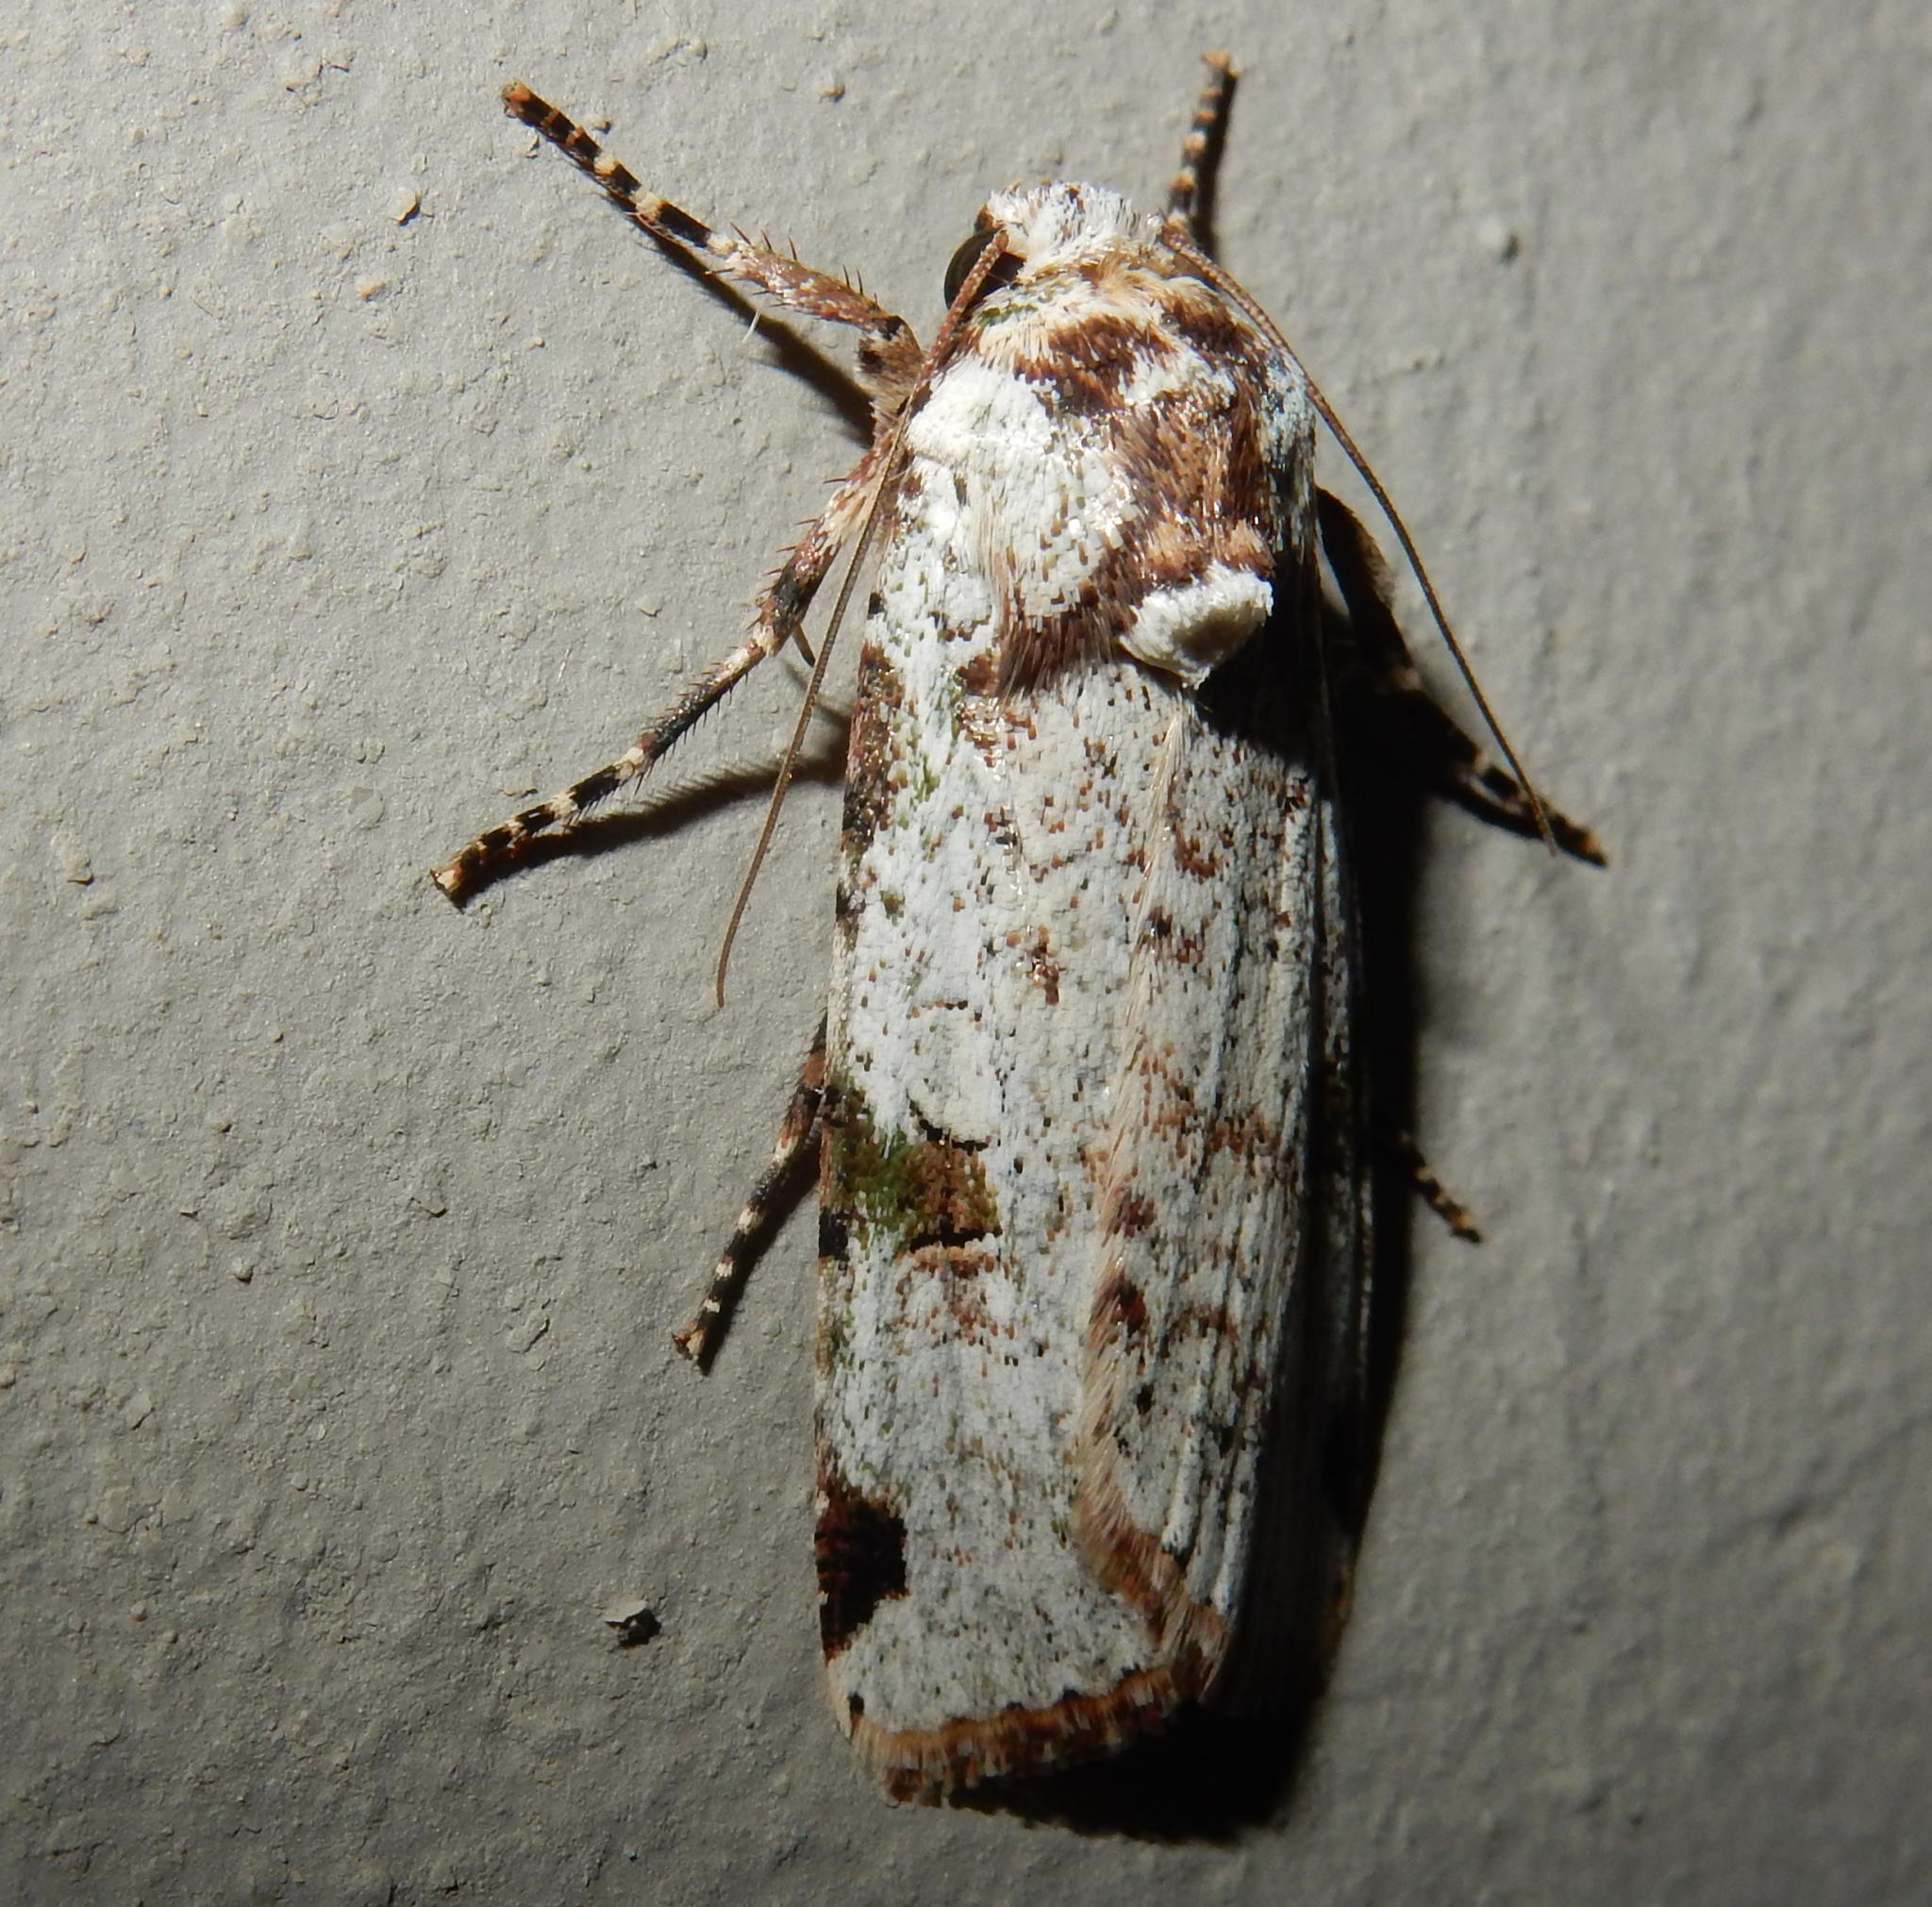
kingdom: Animalia
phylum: Arthropoda
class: Insecta
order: Lepidoptera
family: Noctuidae
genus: Mentaxya
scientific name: Mentaxya ignicollis
